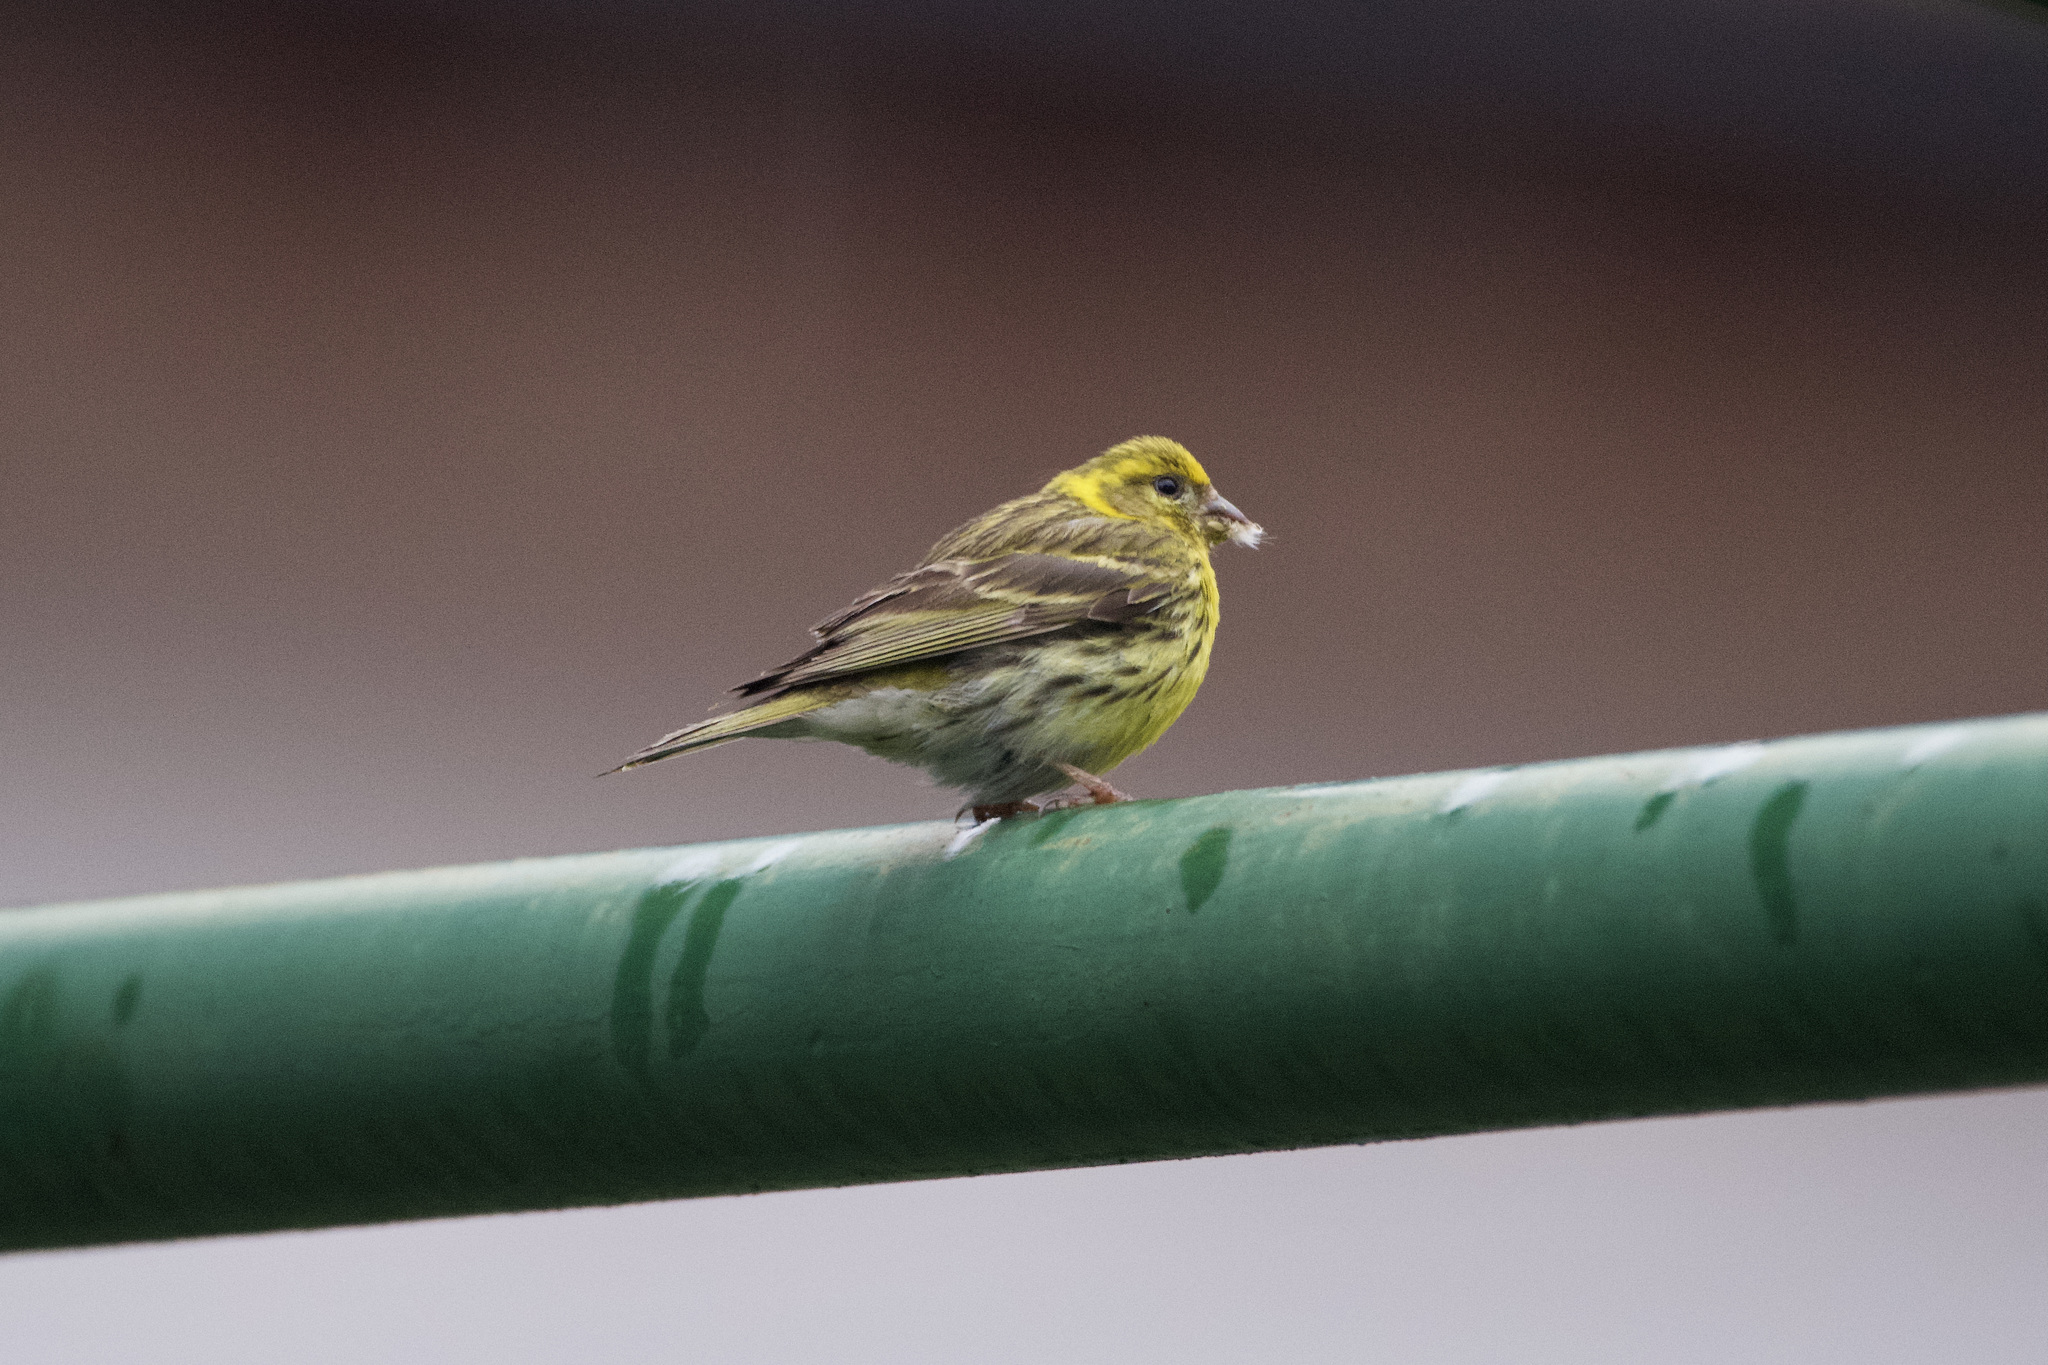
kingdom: Animalia
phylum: Chordata
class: Aves
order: Passeriformes
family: Fringillidae
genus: Serinus
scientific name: Serinus serinus
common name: European serin
